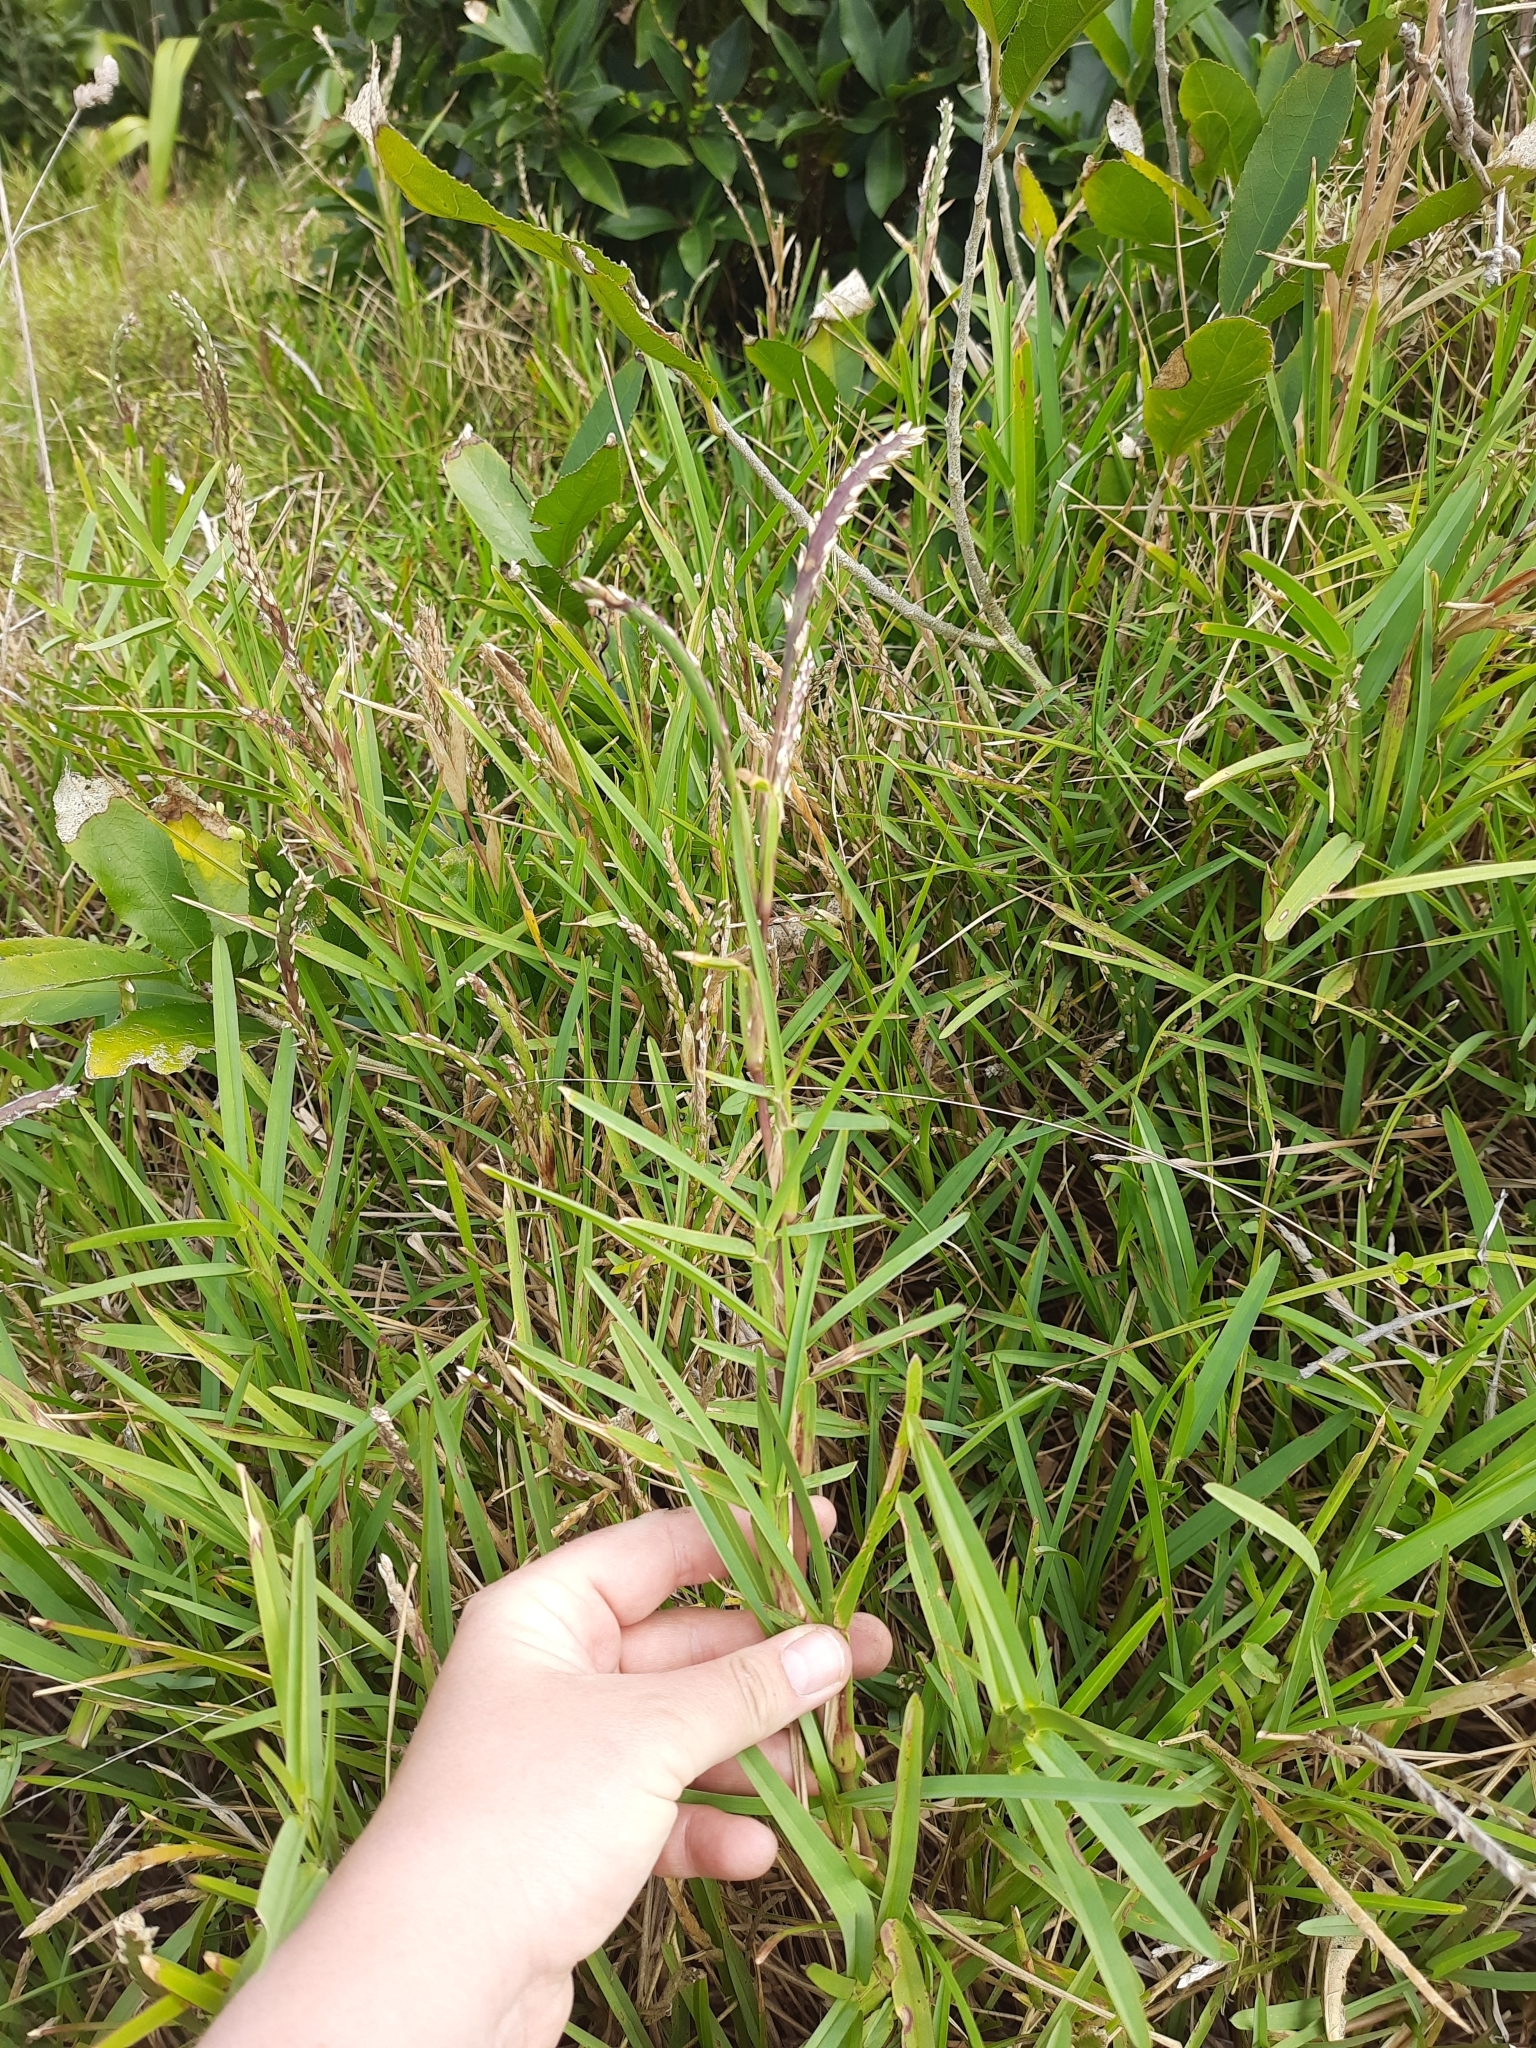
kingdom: Plantae
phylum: Tracheophyta
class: Liliopsida
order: Poales
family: Poaceae
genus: Stenotaphrum
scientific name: Stenotaphrum secundatum
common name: St. augustine grass
